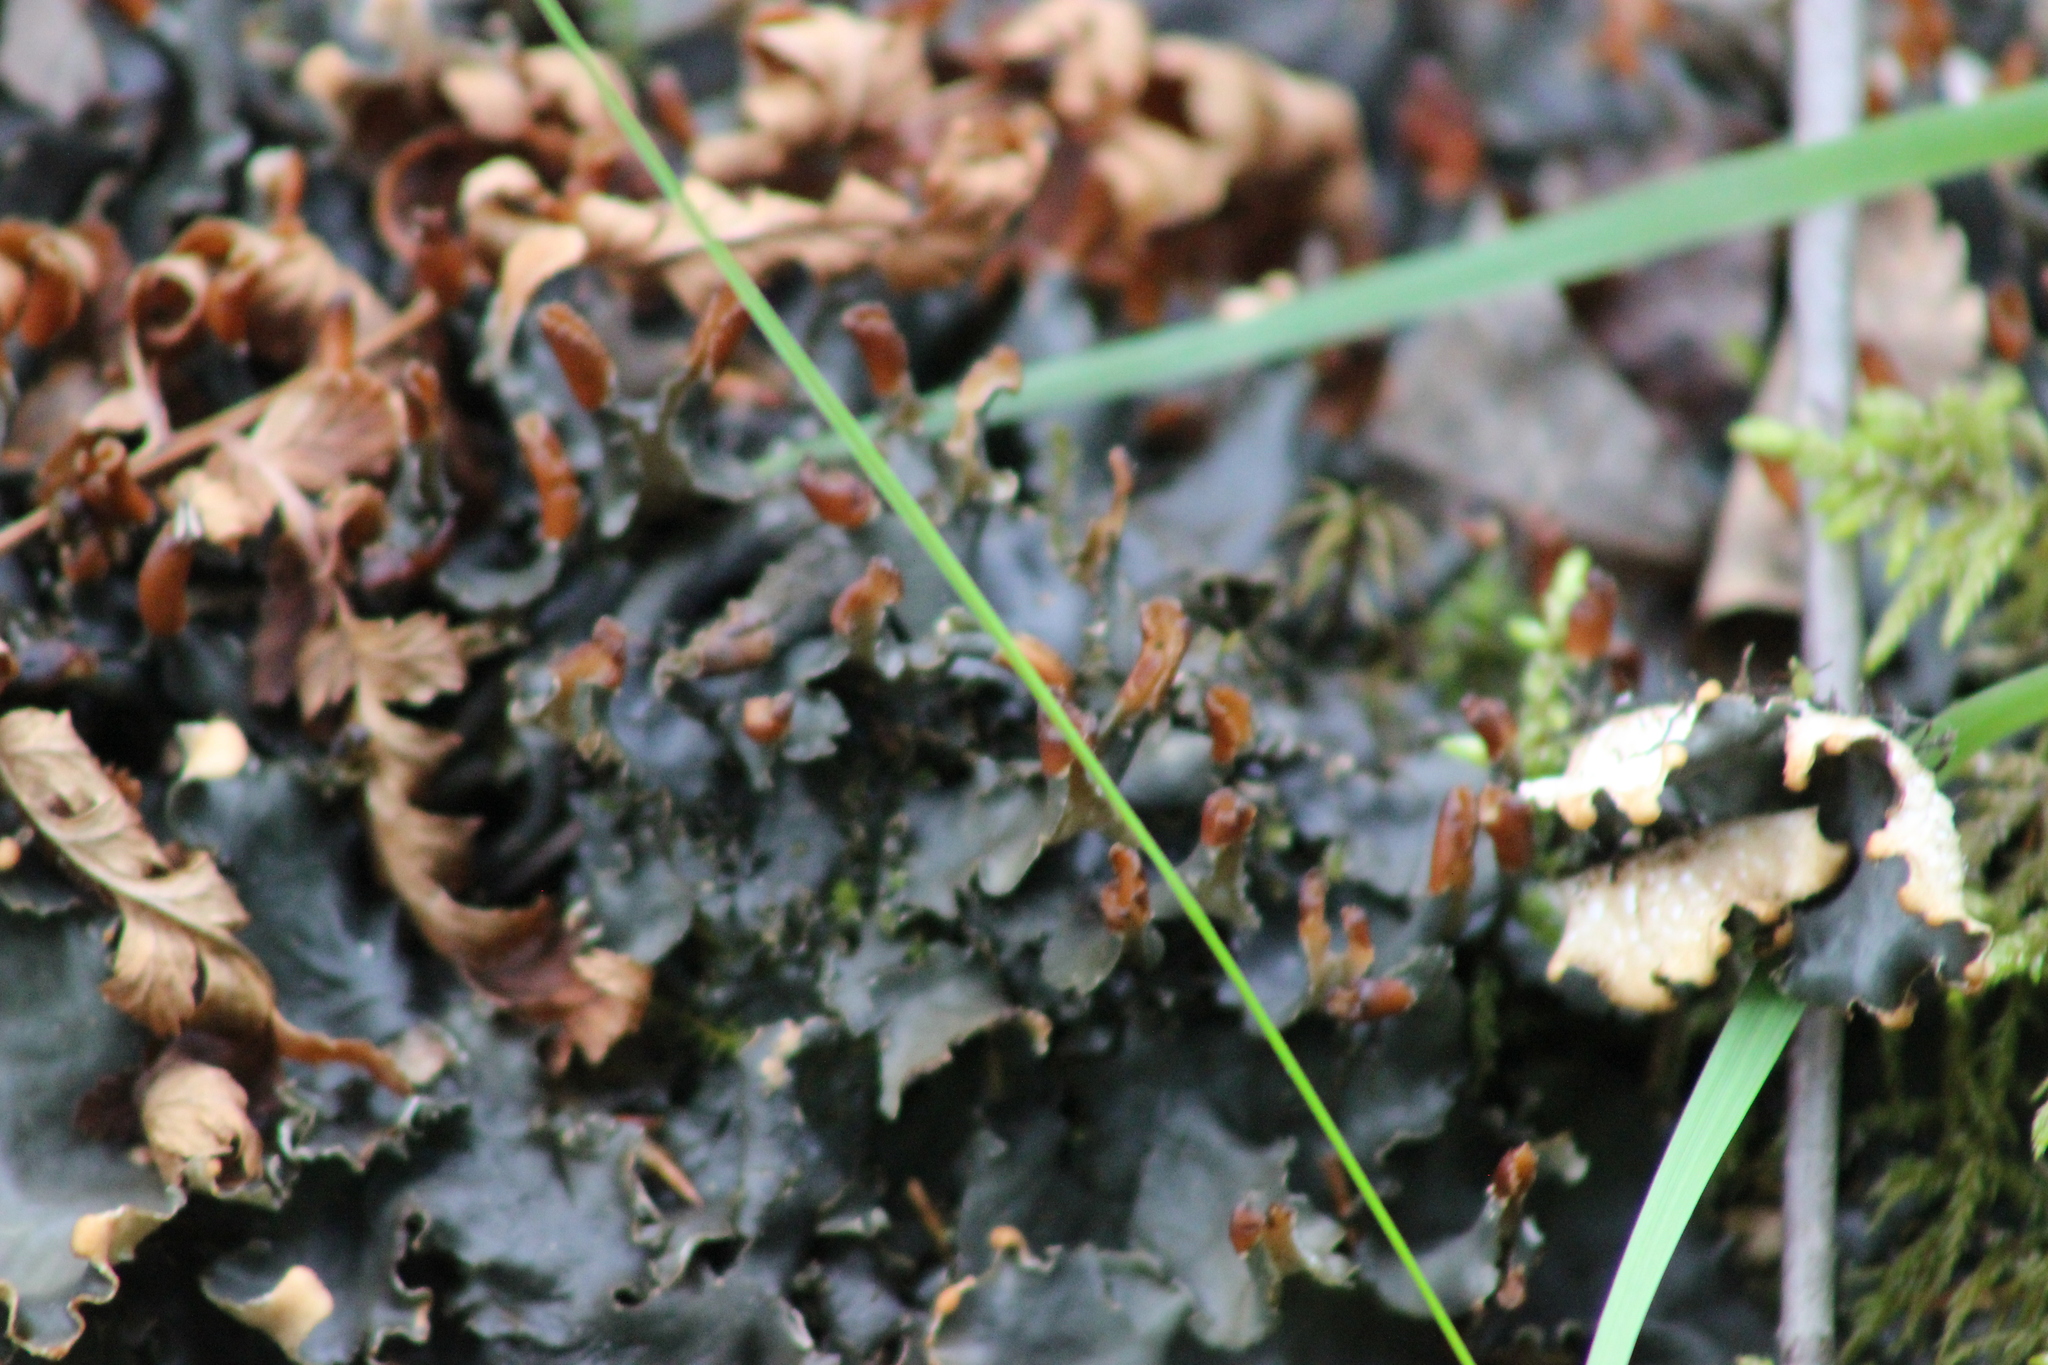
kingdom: Fungi
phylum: Ascomycota
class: Lecanoromycetes
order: Peltigerales
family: Peltigeraceae
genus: Peltigera
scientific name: Peltigera polydactylon
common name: Many-fruited pelt lichen
